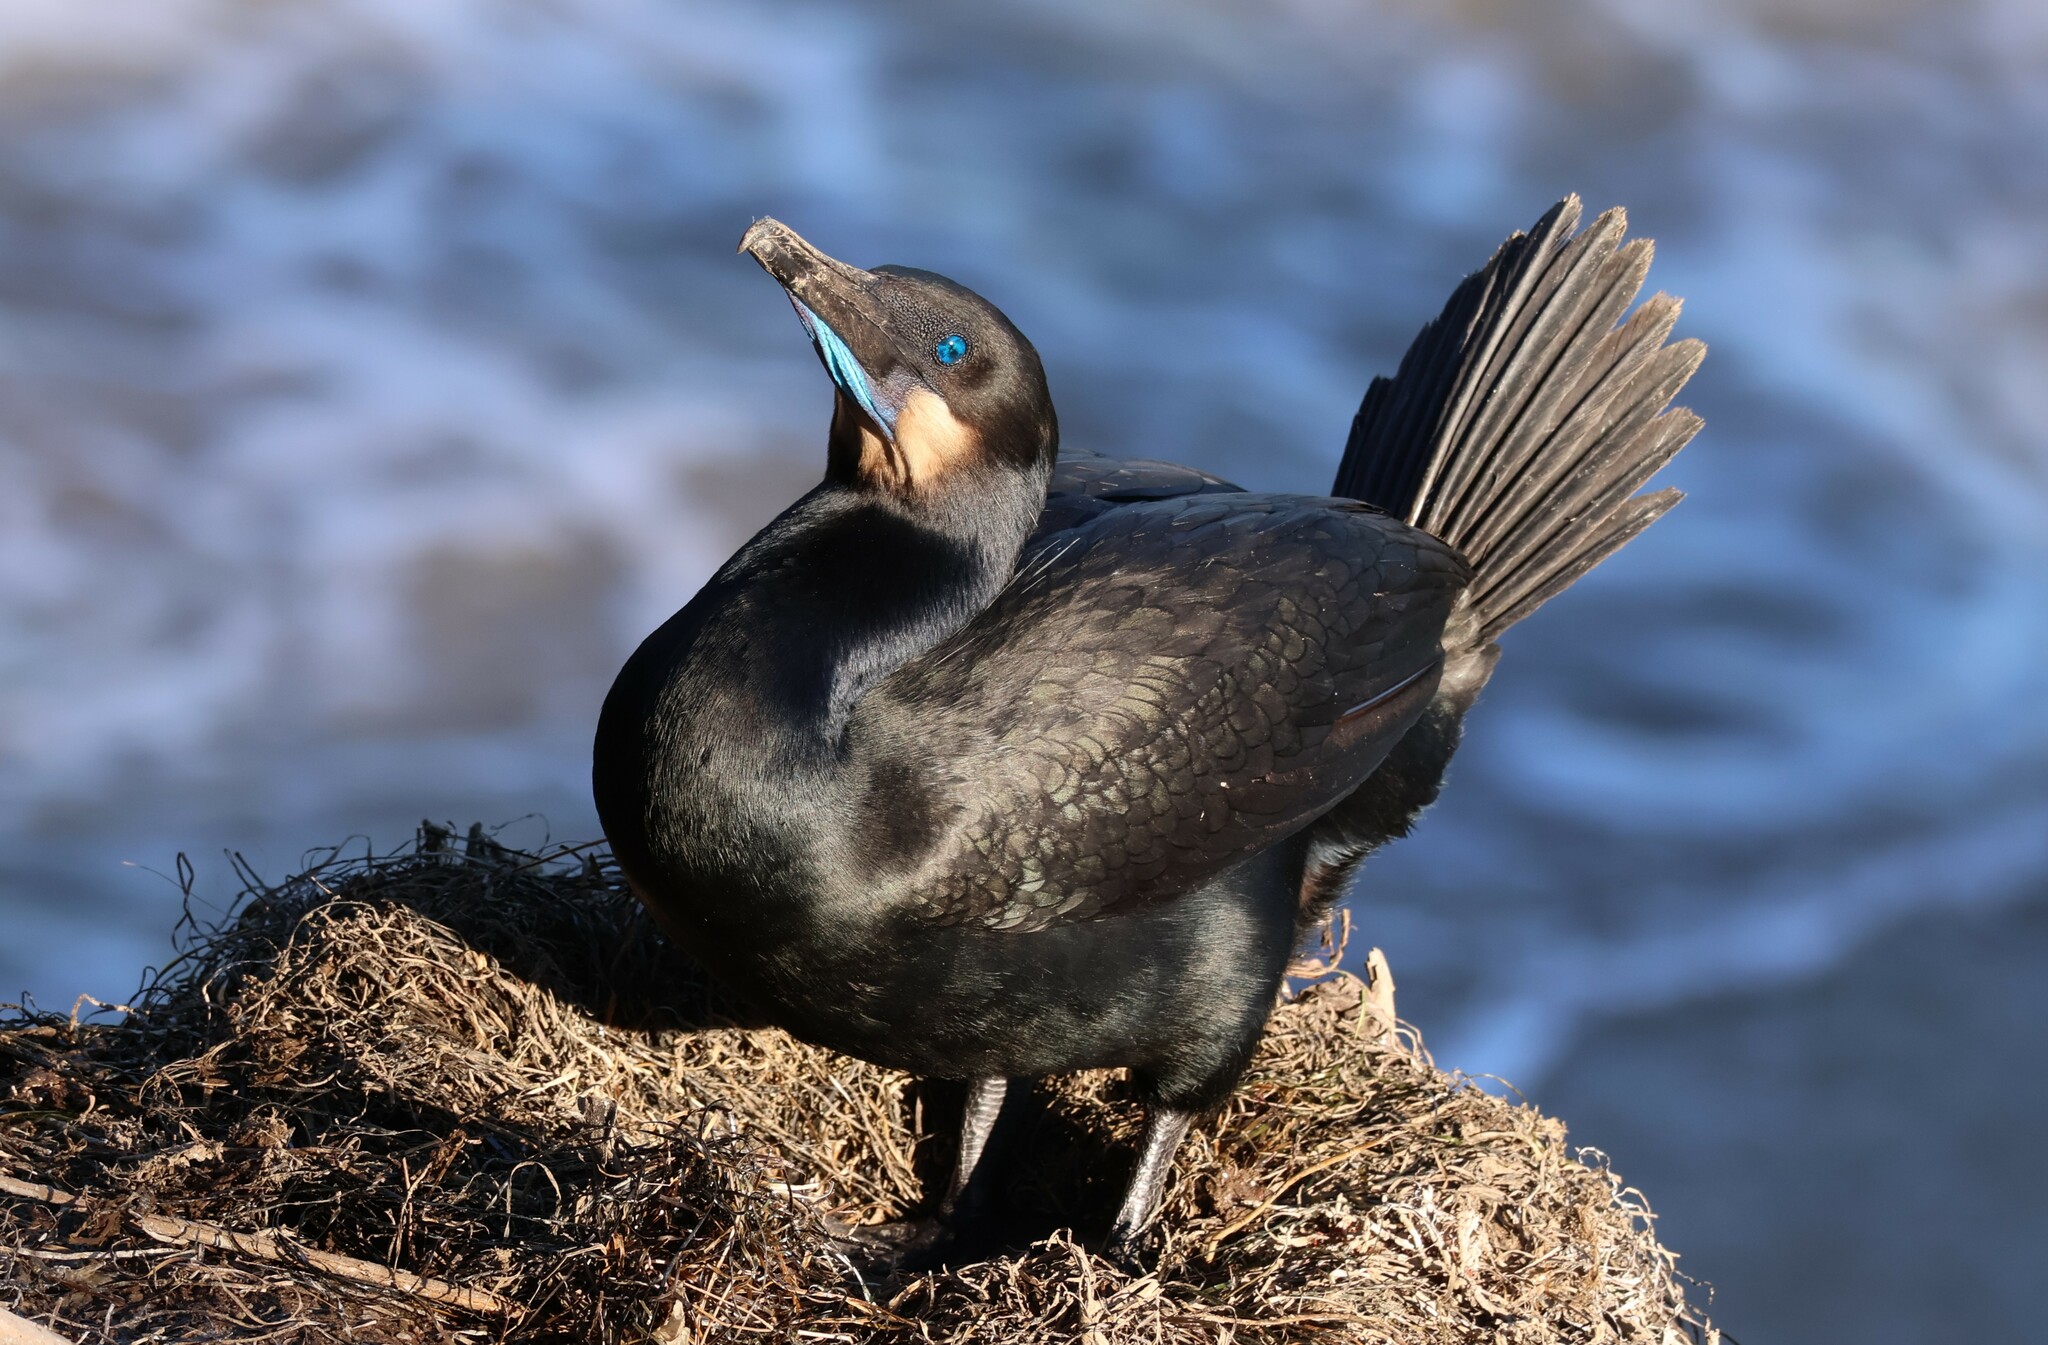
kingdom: Animalia
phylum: Chordata
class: Aves
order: Suliformes
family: Phalacrocoracidae
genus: Urile
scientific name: Urile penicillatus
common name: Brandt's cormorant
